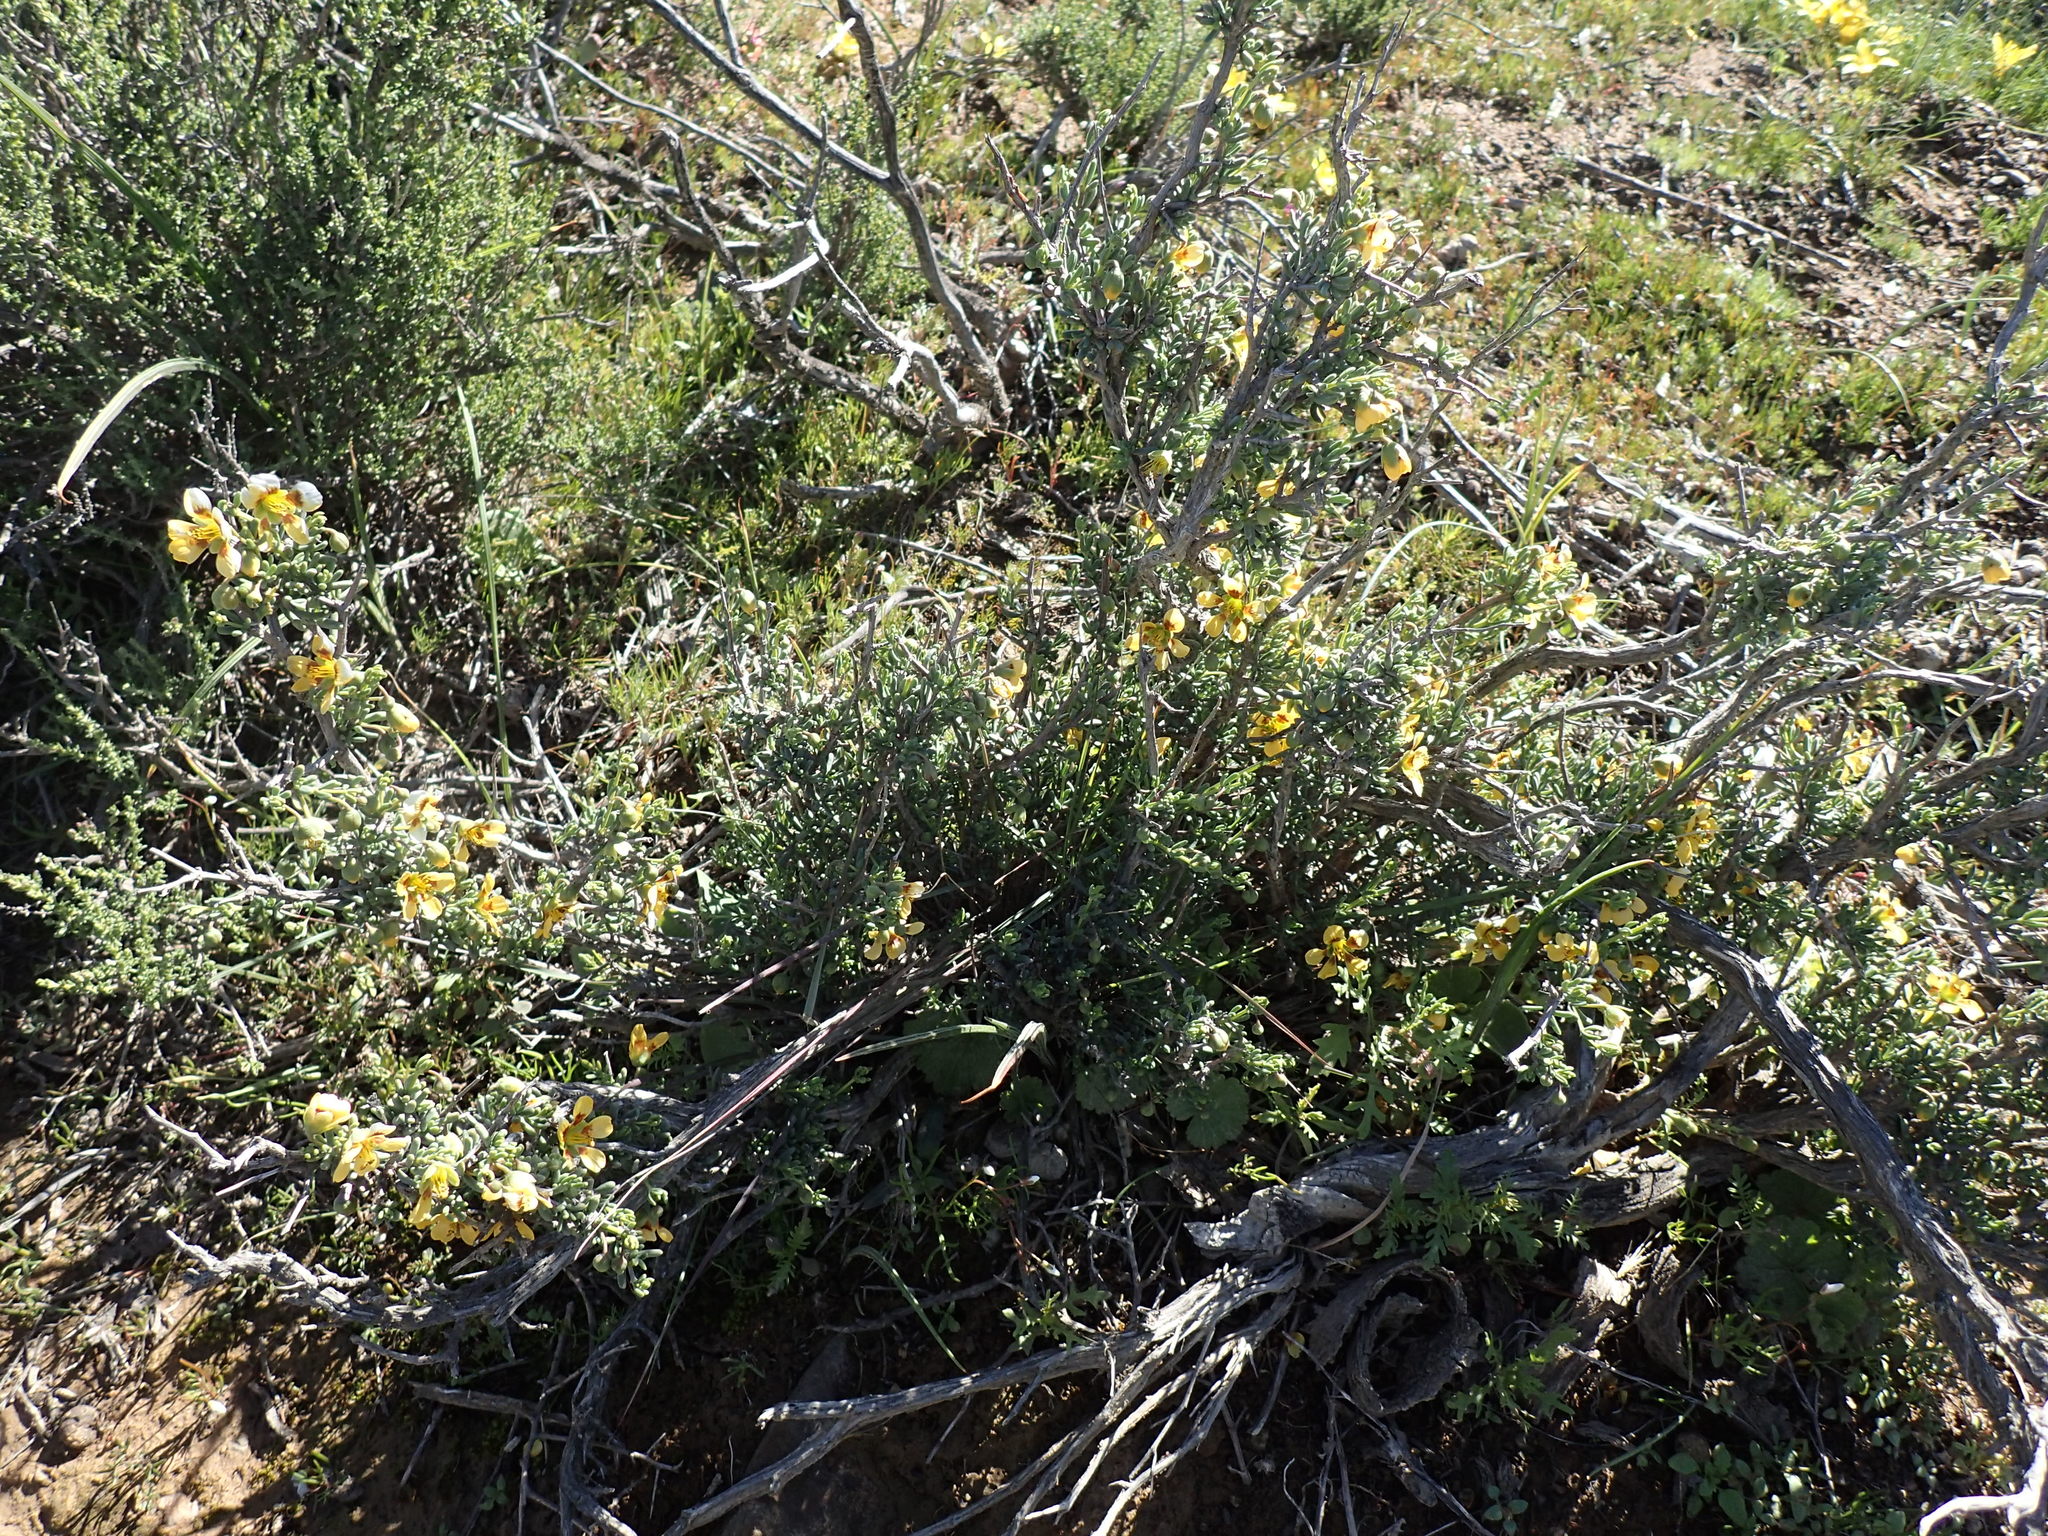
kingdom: Plantae
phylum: Tracheophyta
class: Magnoliopsida
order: Zygophyllales
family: Zygophyllaceae
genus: Roepera
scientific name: Roepera pygmaea
